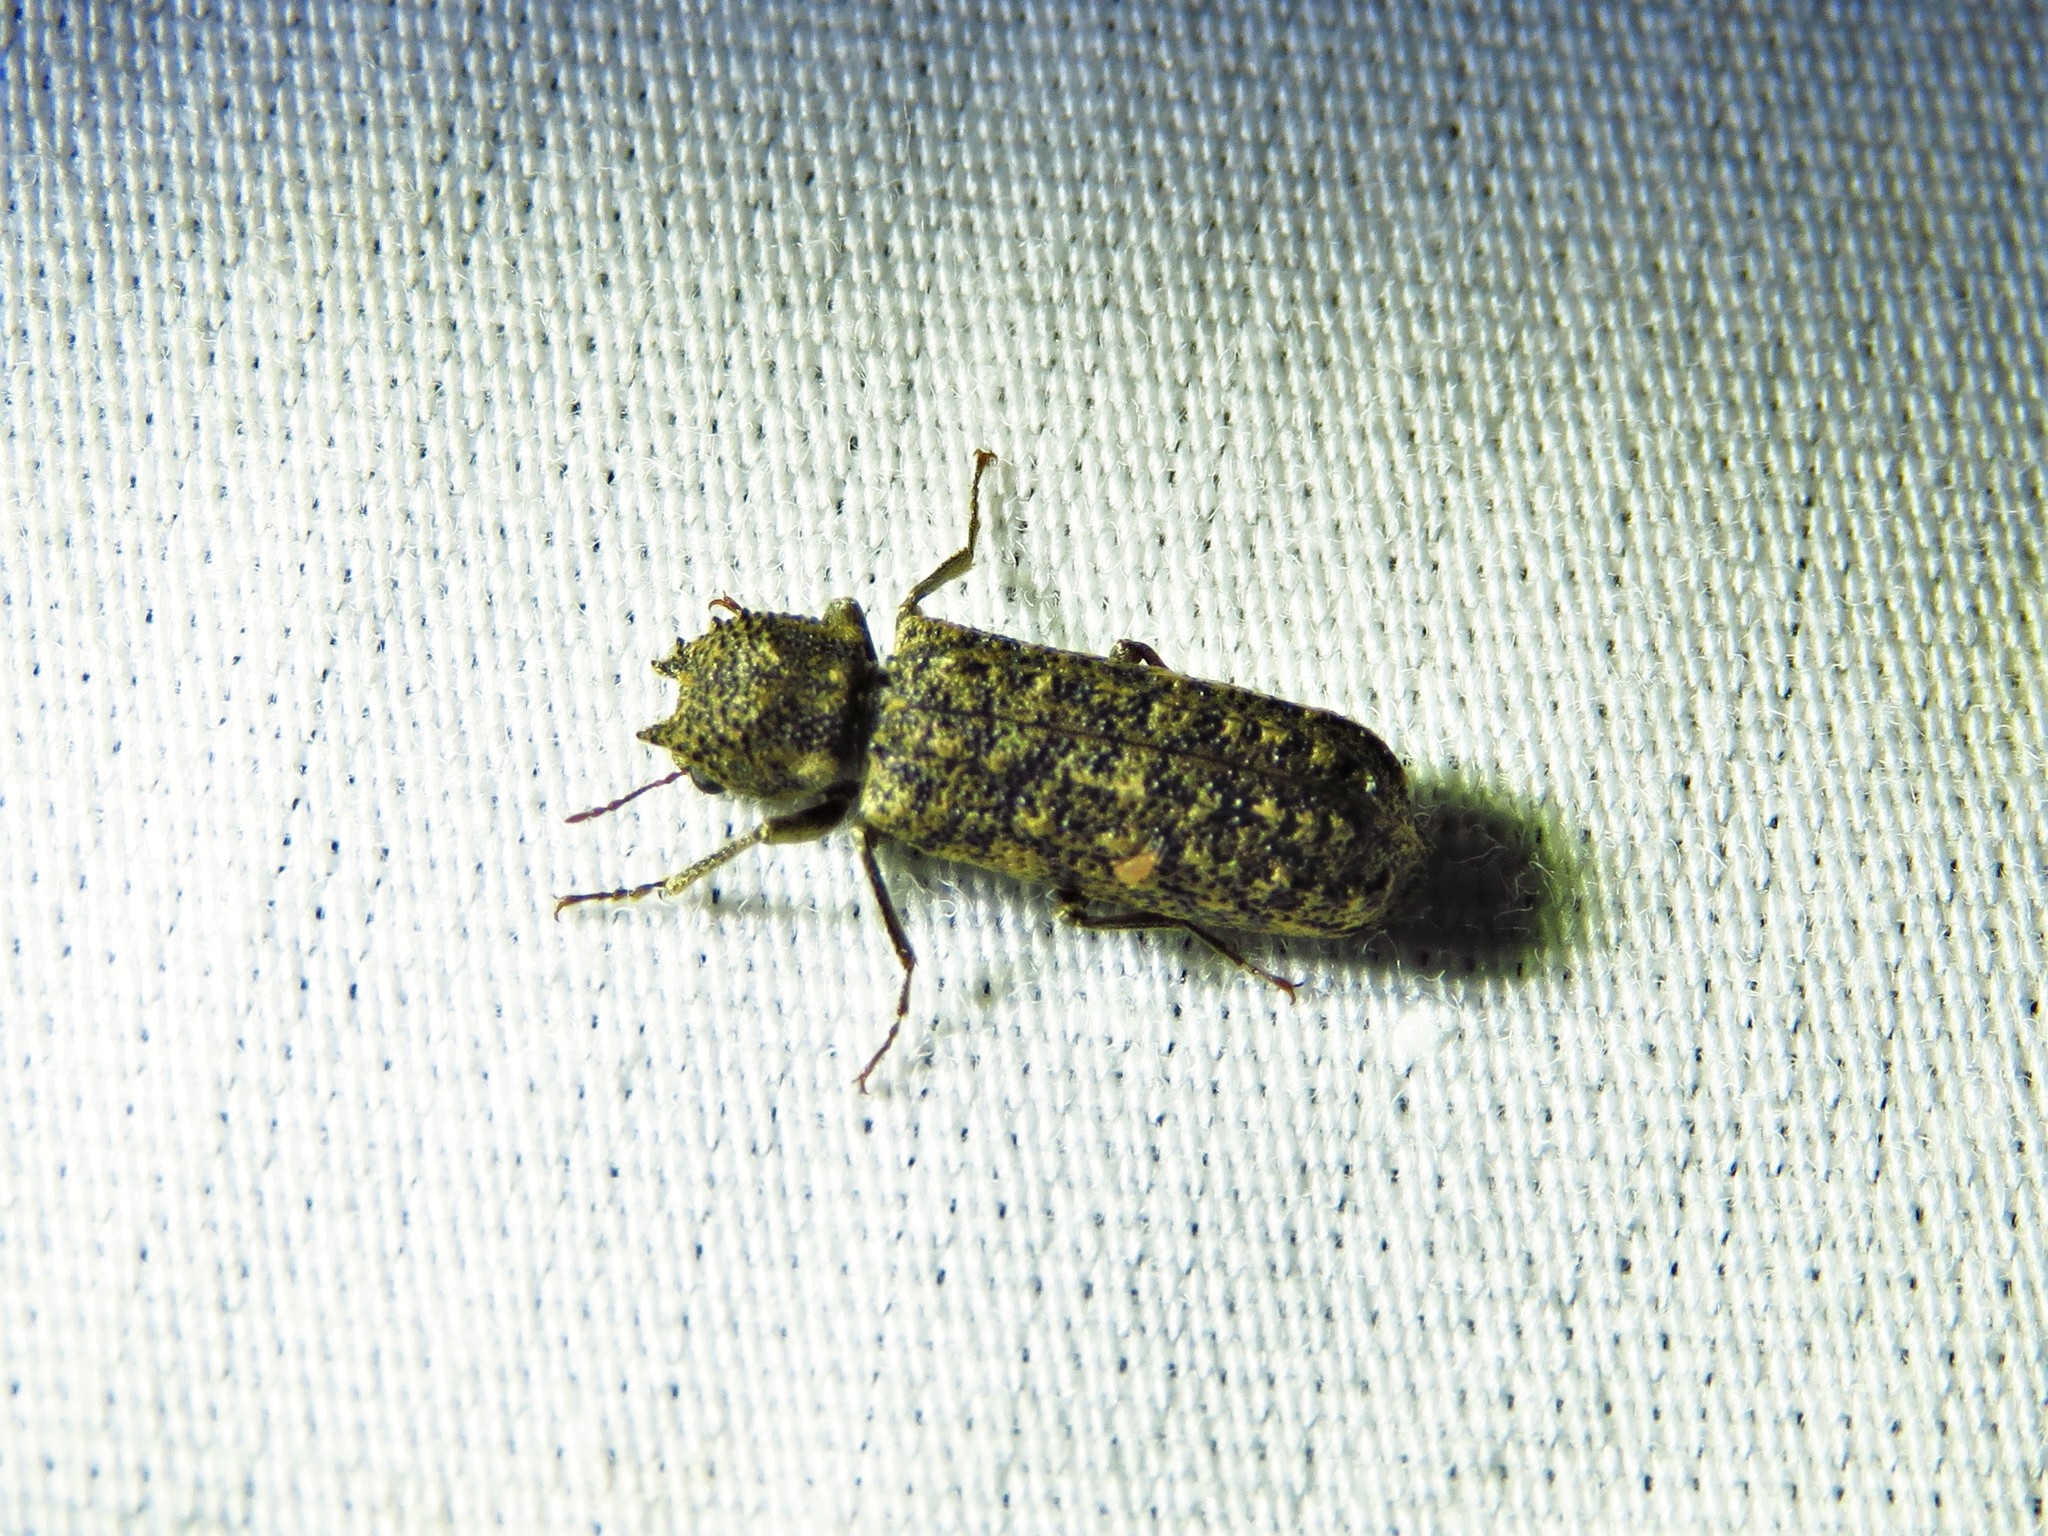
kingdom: Animalia
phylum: Arthropoda
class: Insecta
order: Coleoptera
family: Bostrichidae
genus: Lichenophanes
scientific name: Lichenophanes bicornis
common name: Two-horned powder-post beetle
